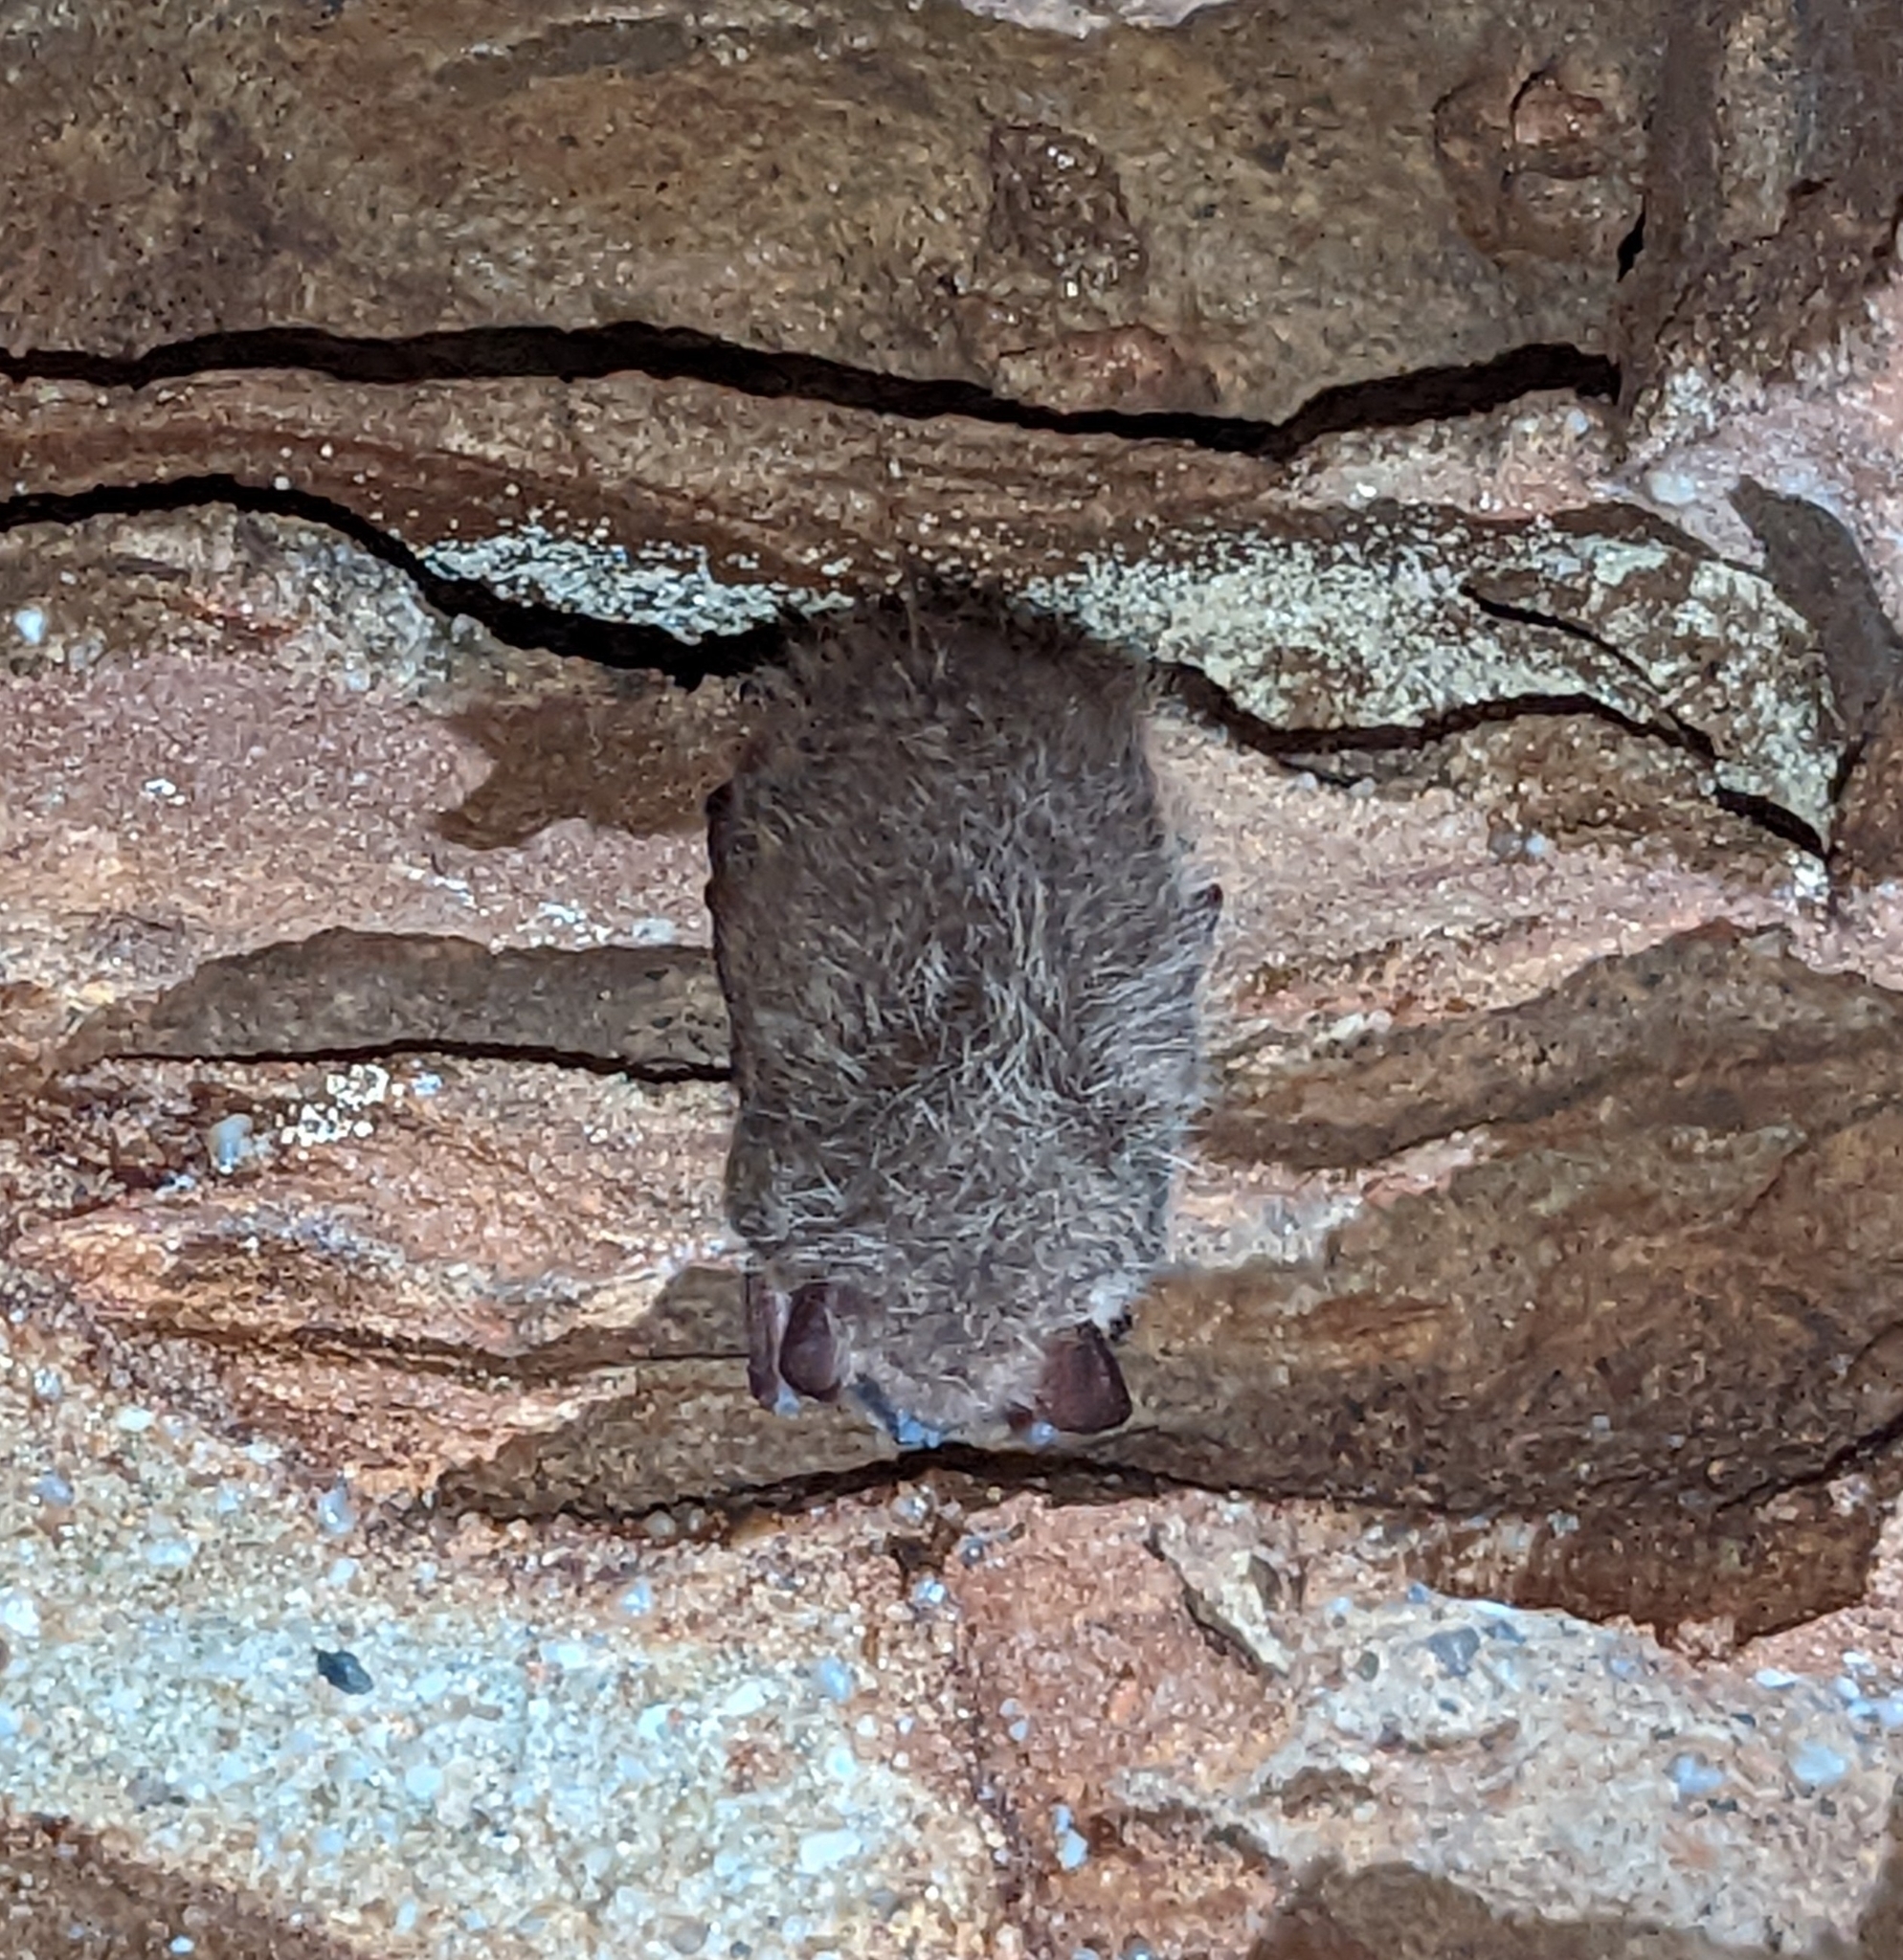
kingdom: Animalia
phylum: Chordata
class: Mammalia
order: Chiroptera
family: Vespertilionidae
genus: Perimyotis
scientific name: Perimyotis subflavus
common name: Eastern pipistrelle
